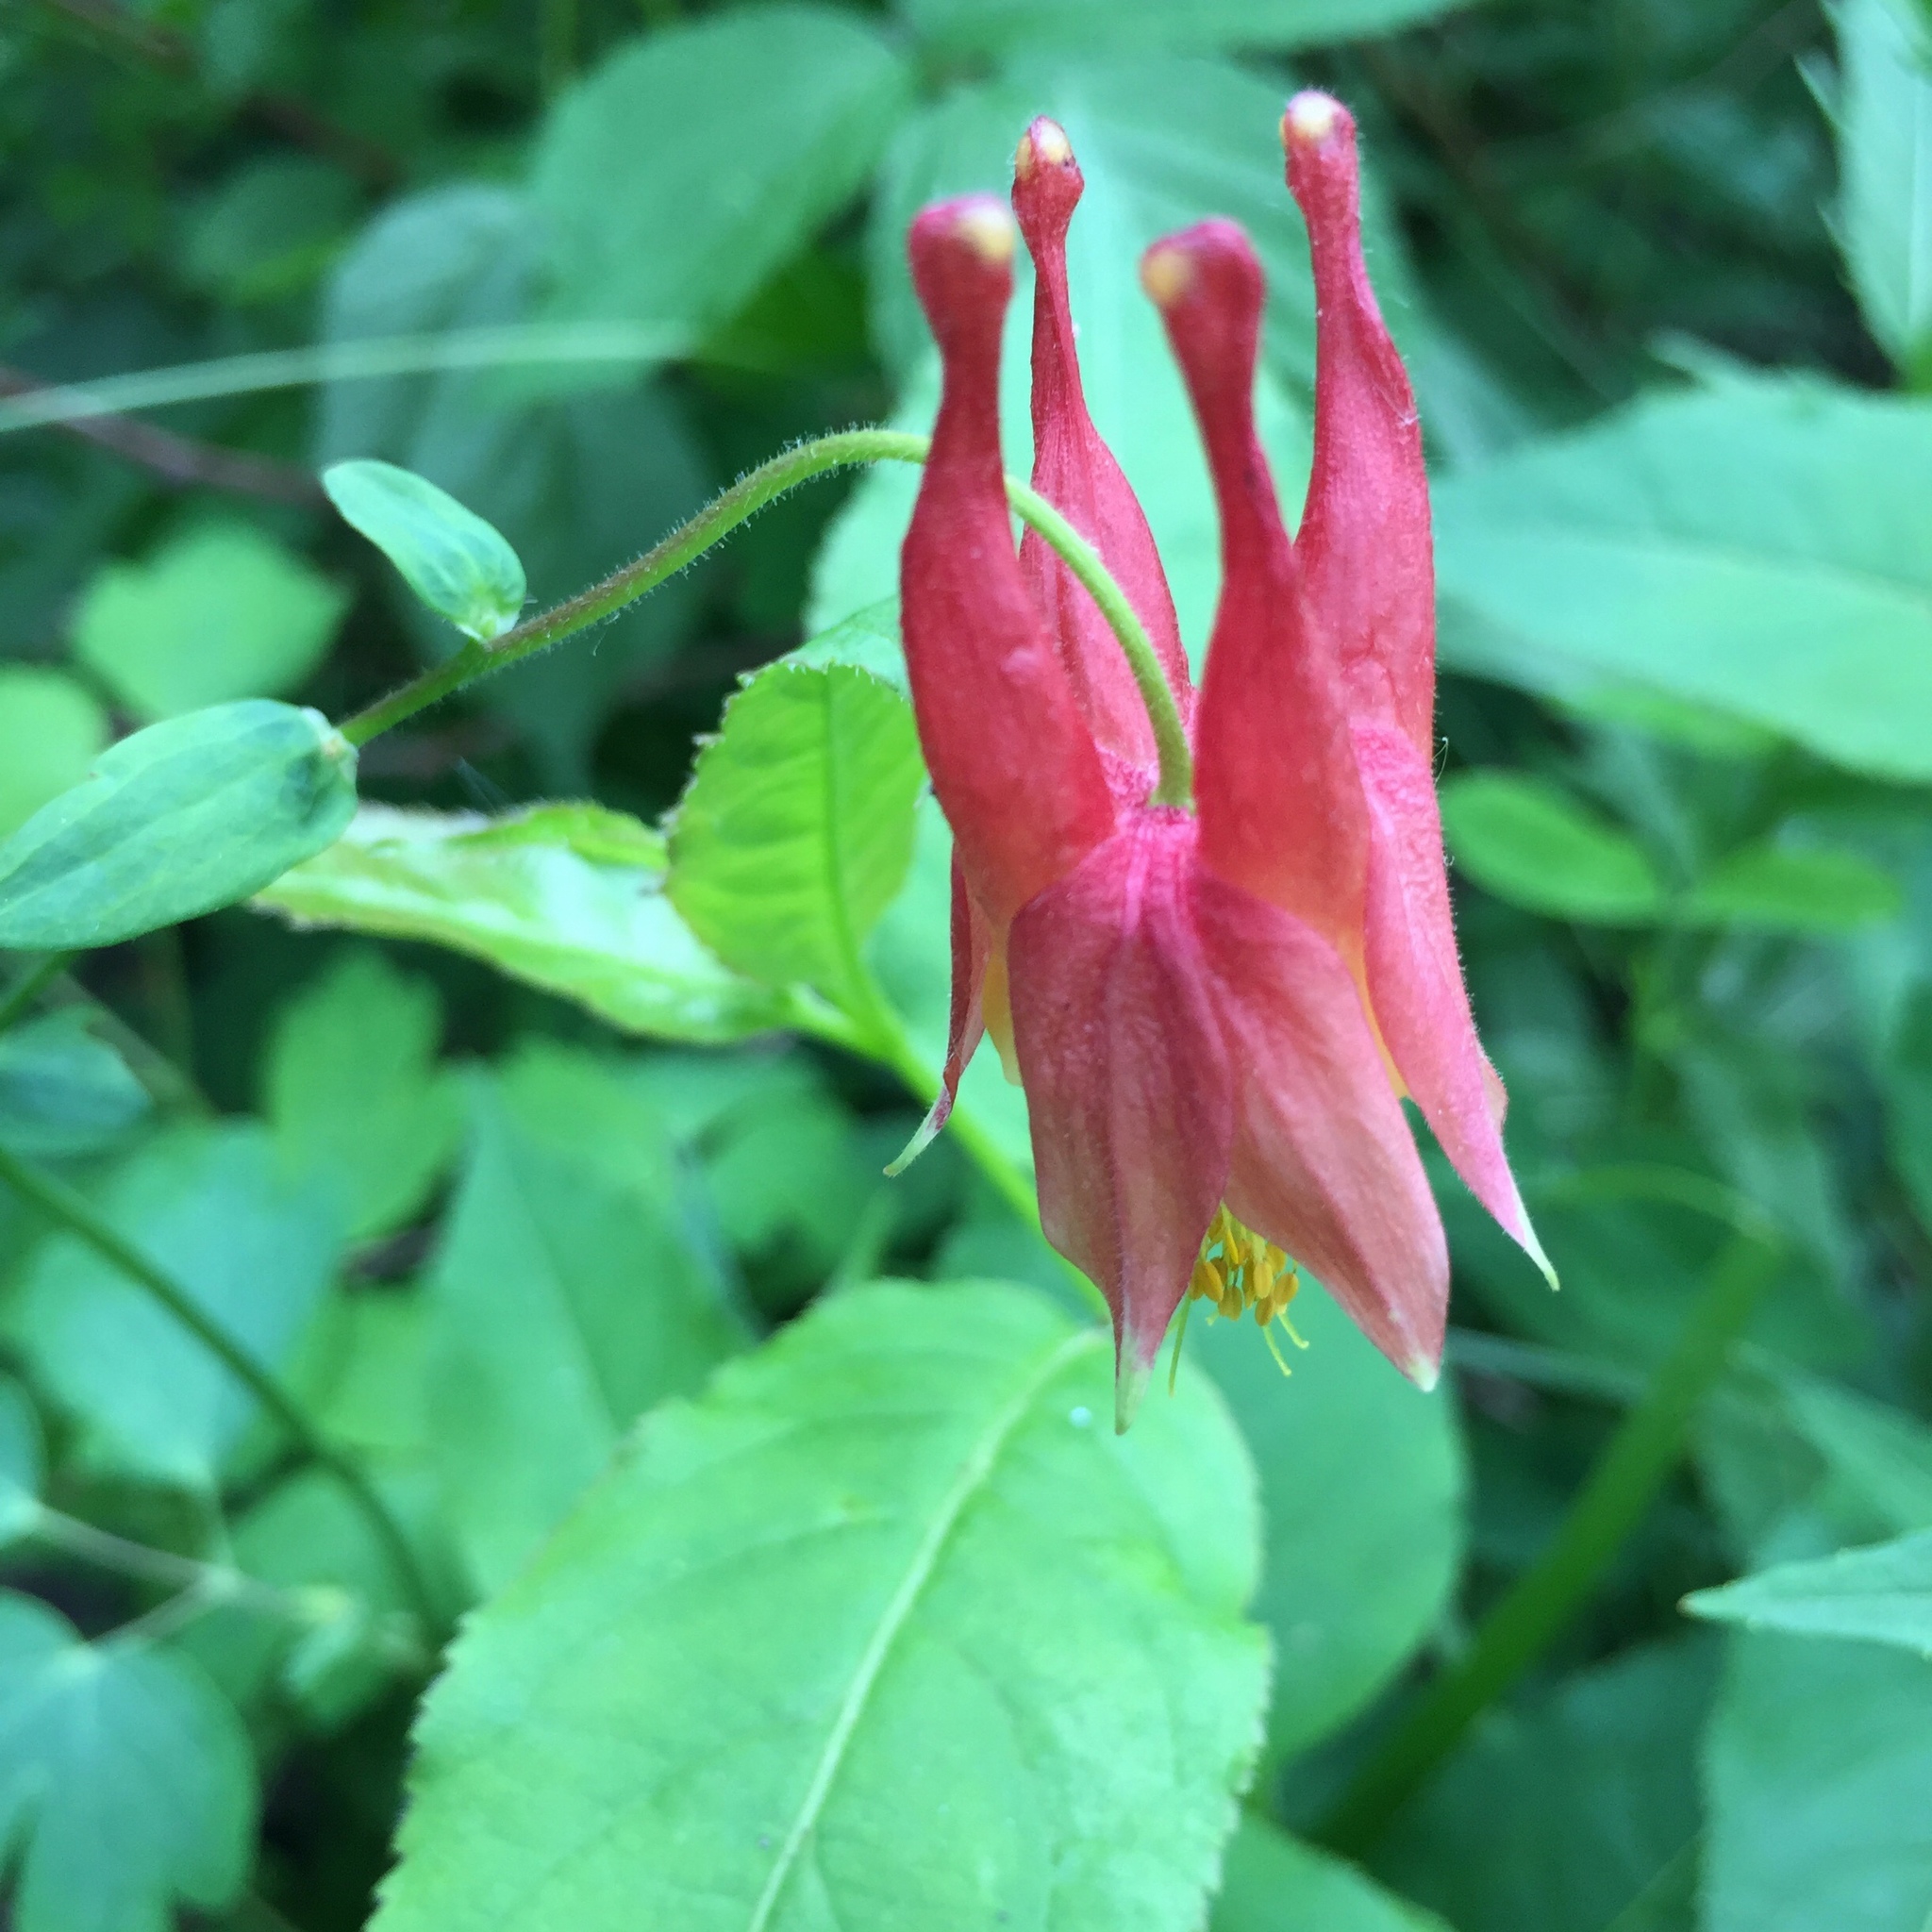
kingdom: Plantae
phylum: Tracheophyta
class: Magnoliopsida
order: Ranunculales
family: Ranunculaceae
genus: Aquilegia
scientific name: Aquilegia canadensis
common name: American columbine
